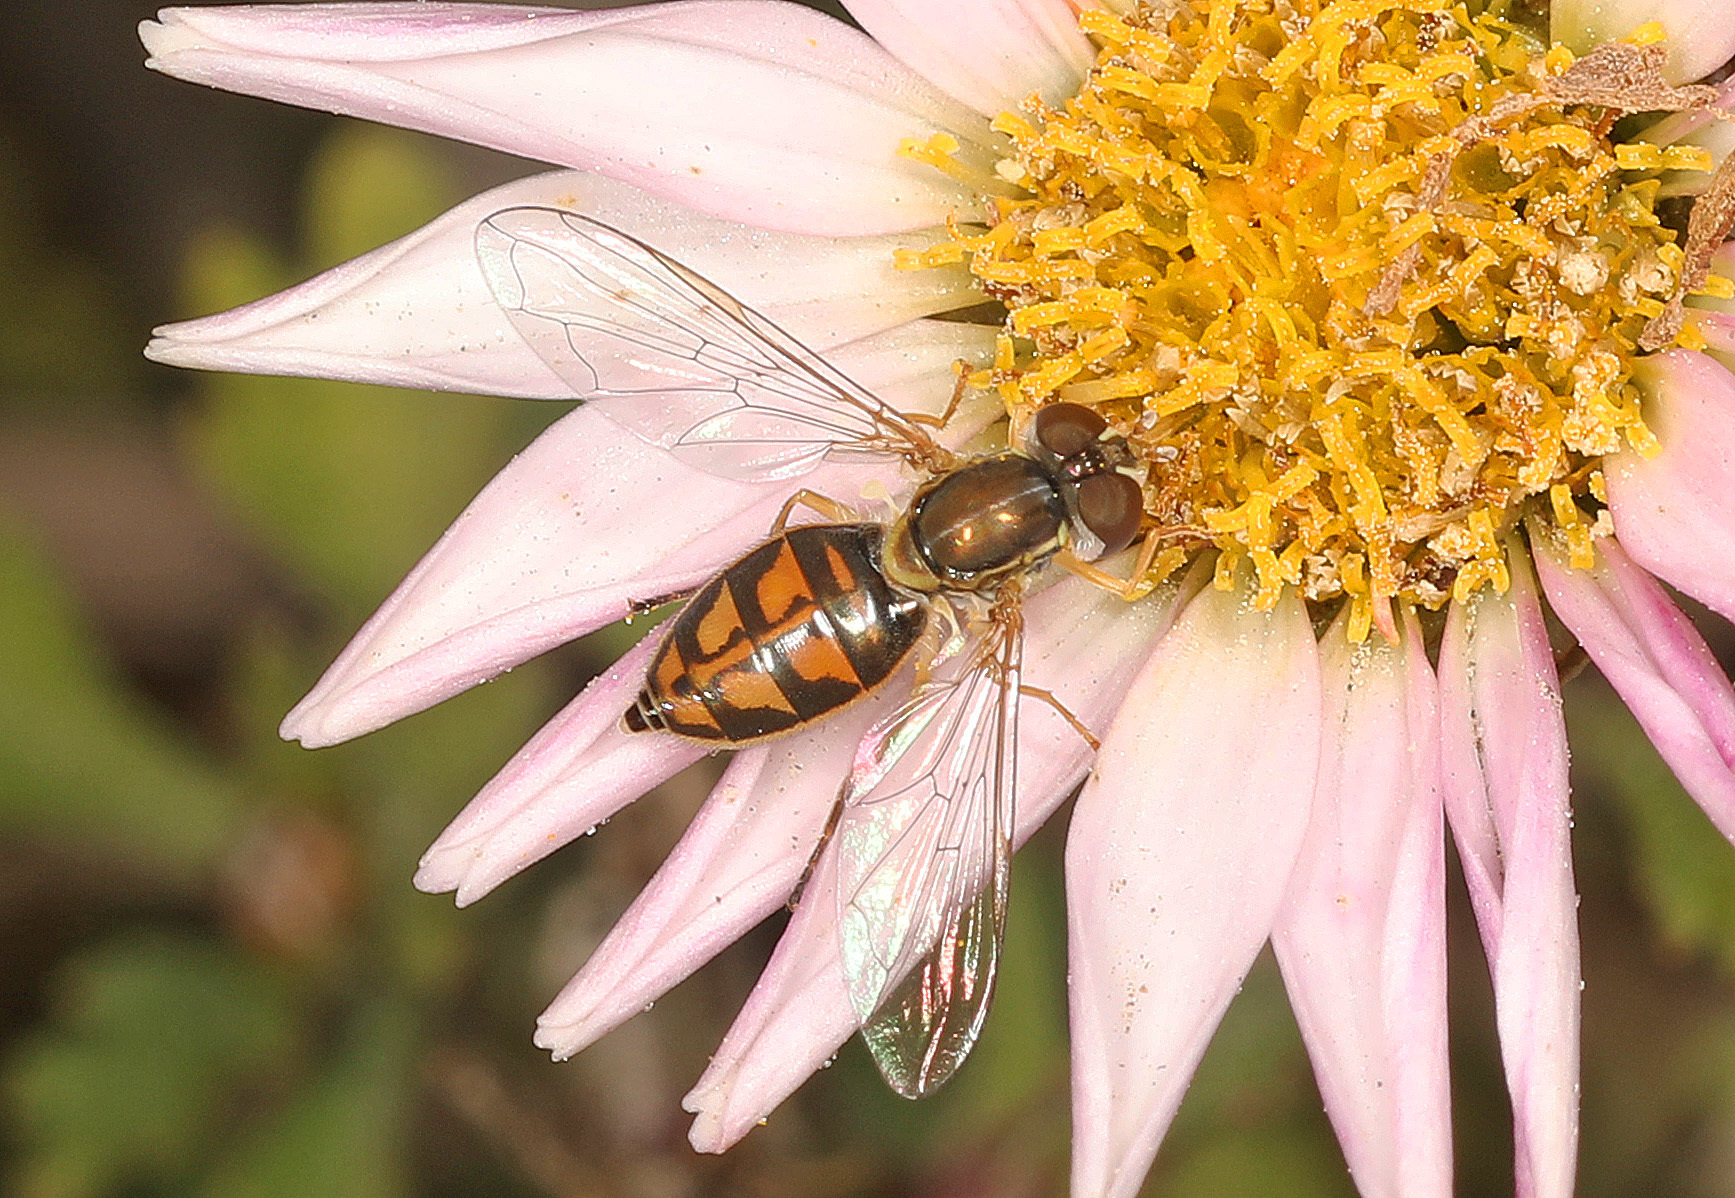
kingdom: Animalia
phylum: Arthropoda
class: Insecta
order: Diptera
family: Syrphidae
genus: Toxomerus
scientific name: Toxomerus marginatus
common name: Syrphid fly
